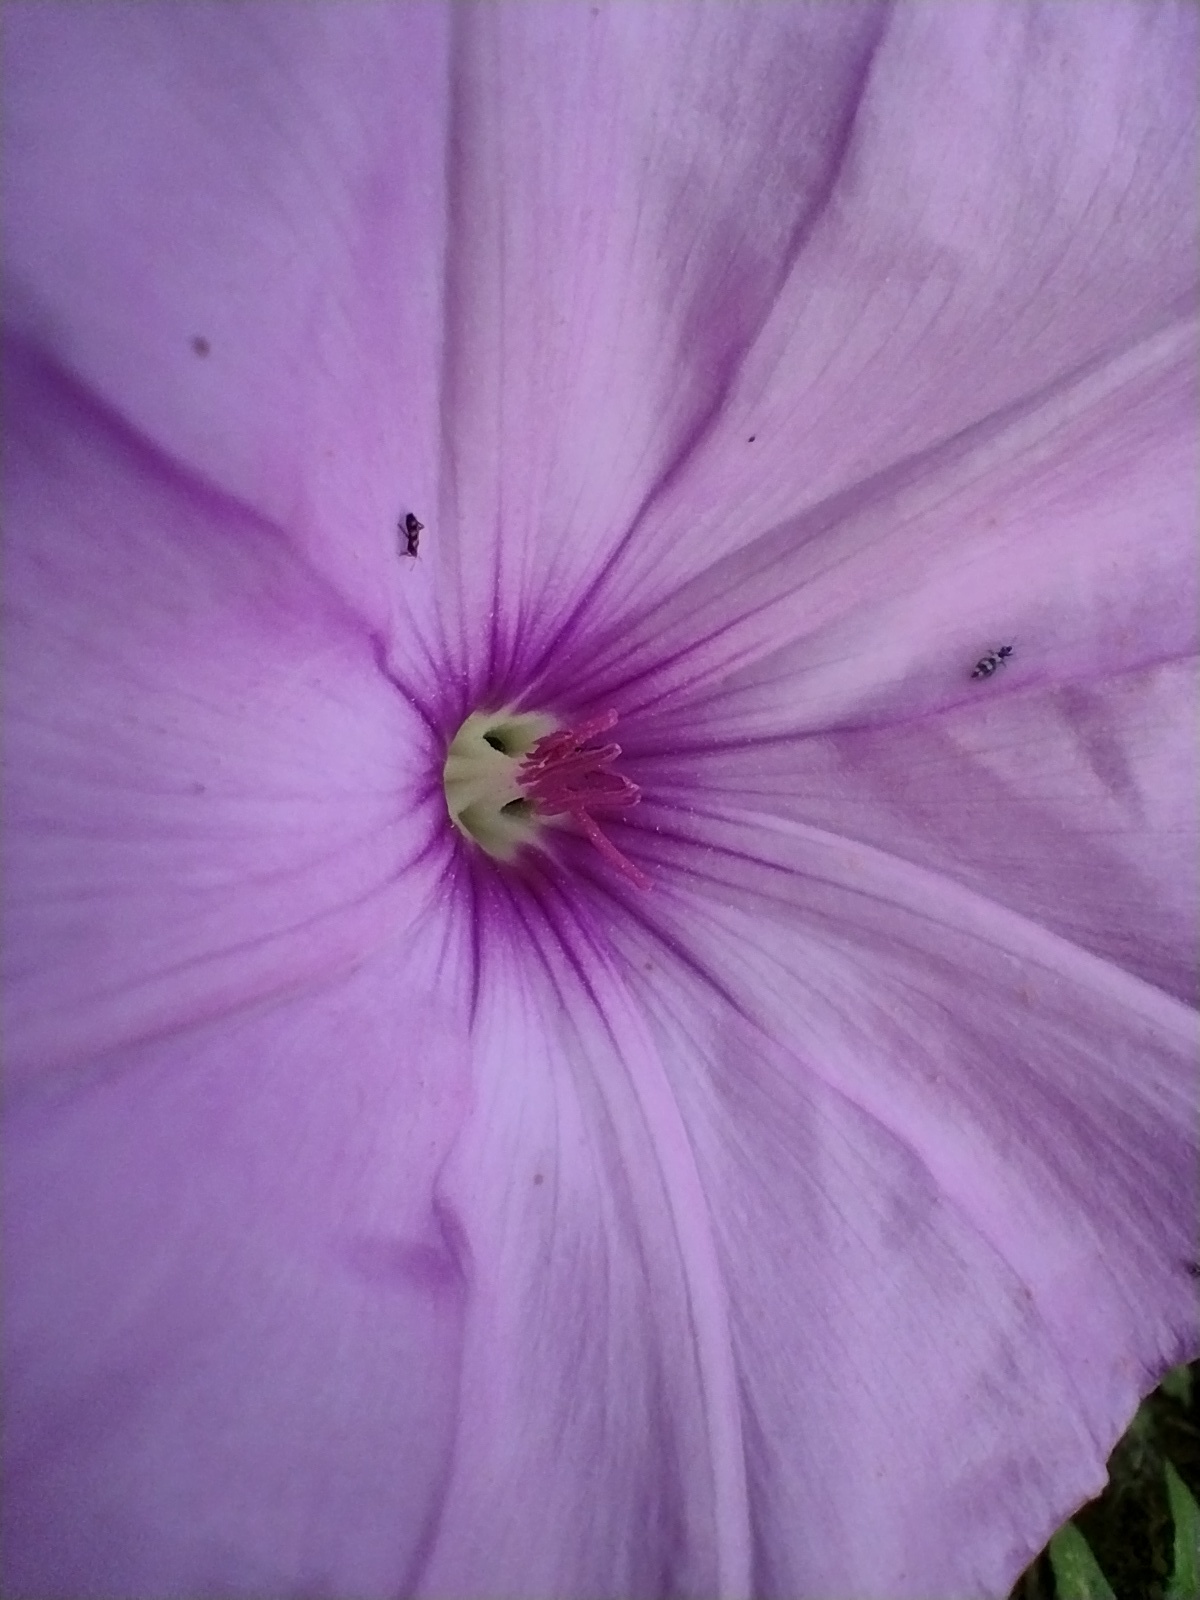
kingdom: Plantae
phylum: Tracheophyta
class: Magnoliopsida
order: Solanales
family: Convolvulaceae
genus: Convolvulus
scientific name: Convolvulus althaeoides
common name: Mallow bindweed
